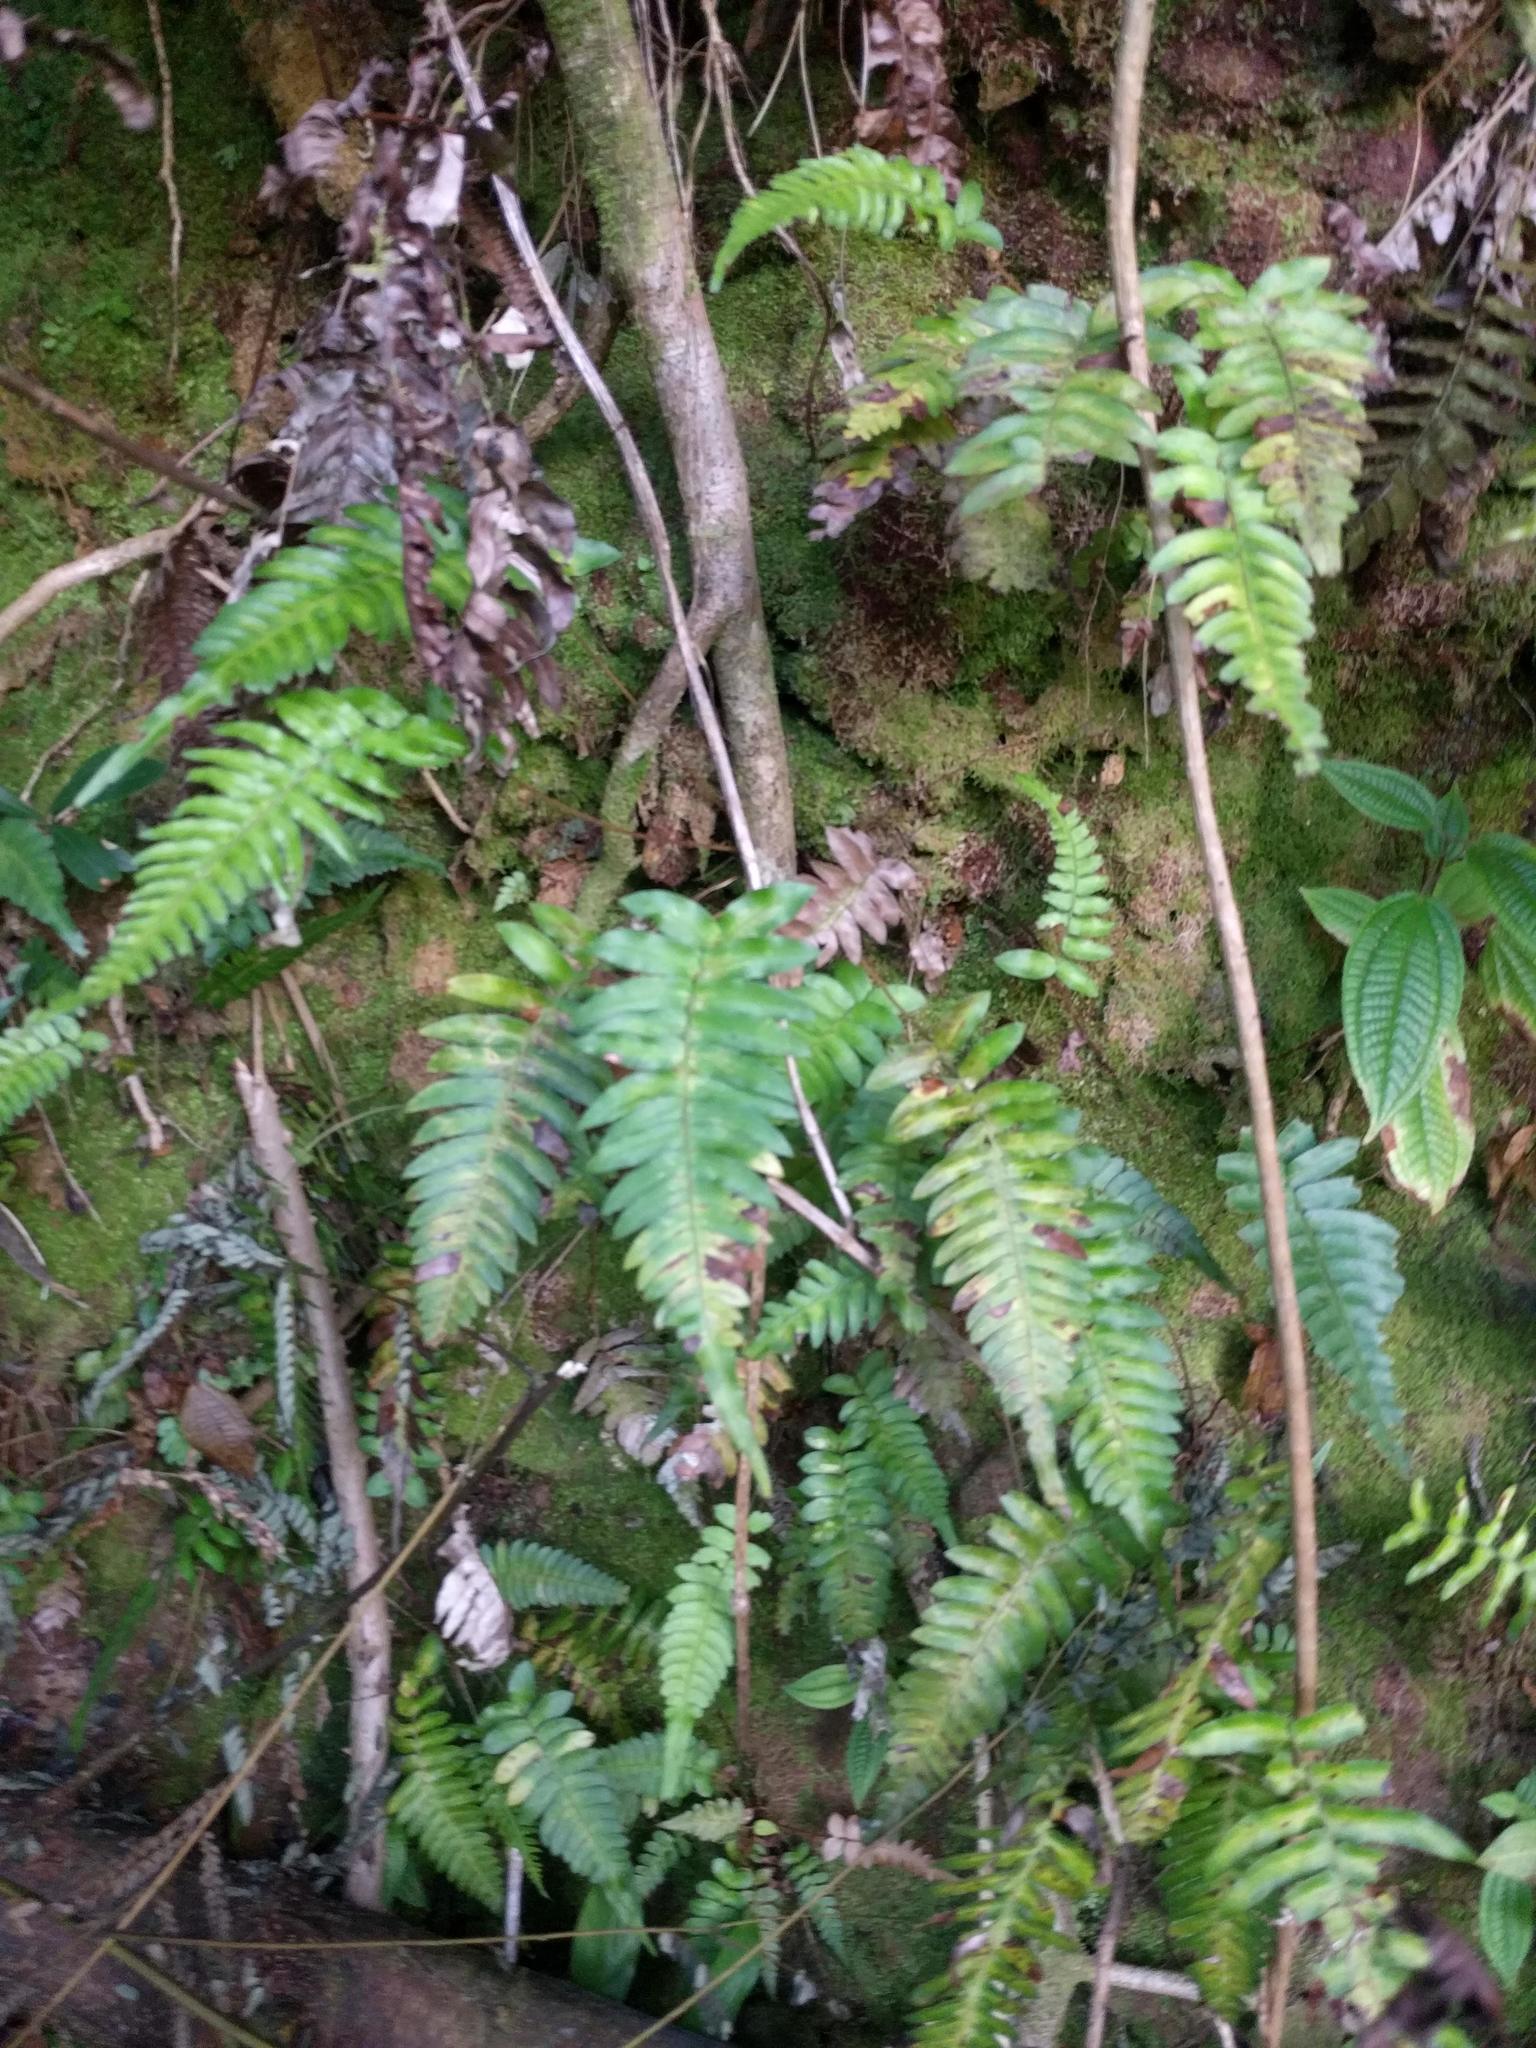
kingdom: Plantae
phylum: Tracheophyta
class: Polypodiopsida
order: Polypodiales
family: Blechnaceae
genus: Blechnum
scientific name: Blechnum appendiculatum
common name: Palm fern
